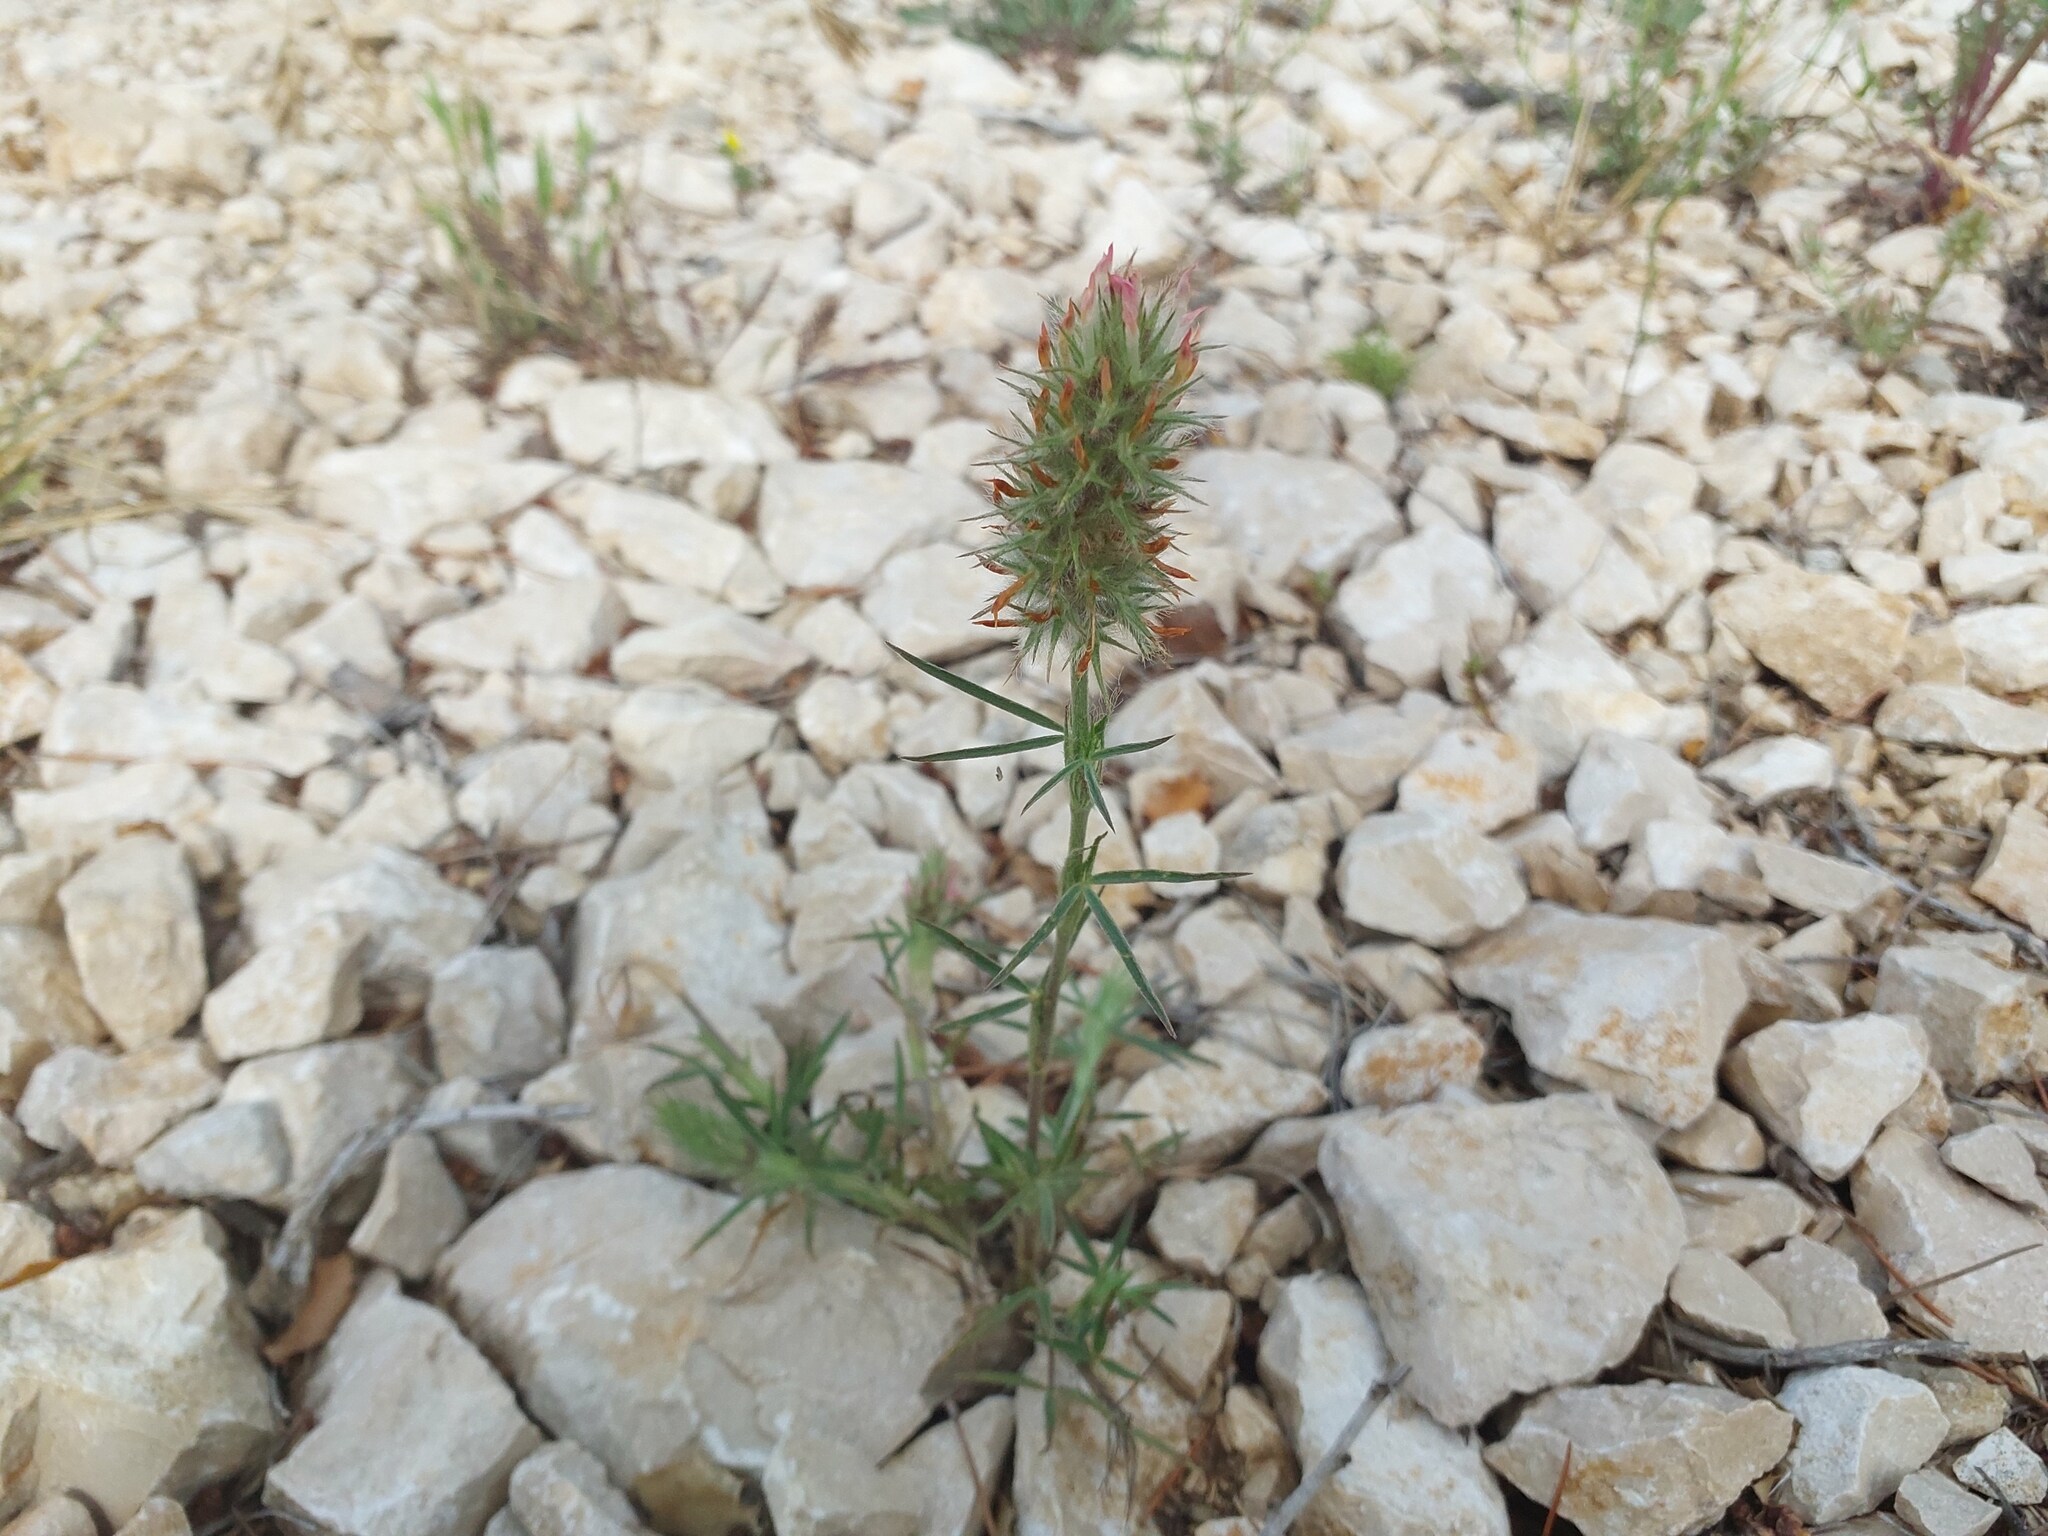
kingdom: Plantae
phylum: Tracheophyta
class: Magnoliopsida
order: Fabales
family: Fabaceae
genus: Trifolium
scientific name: Trifolium angustifolium
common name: Narrow clover
